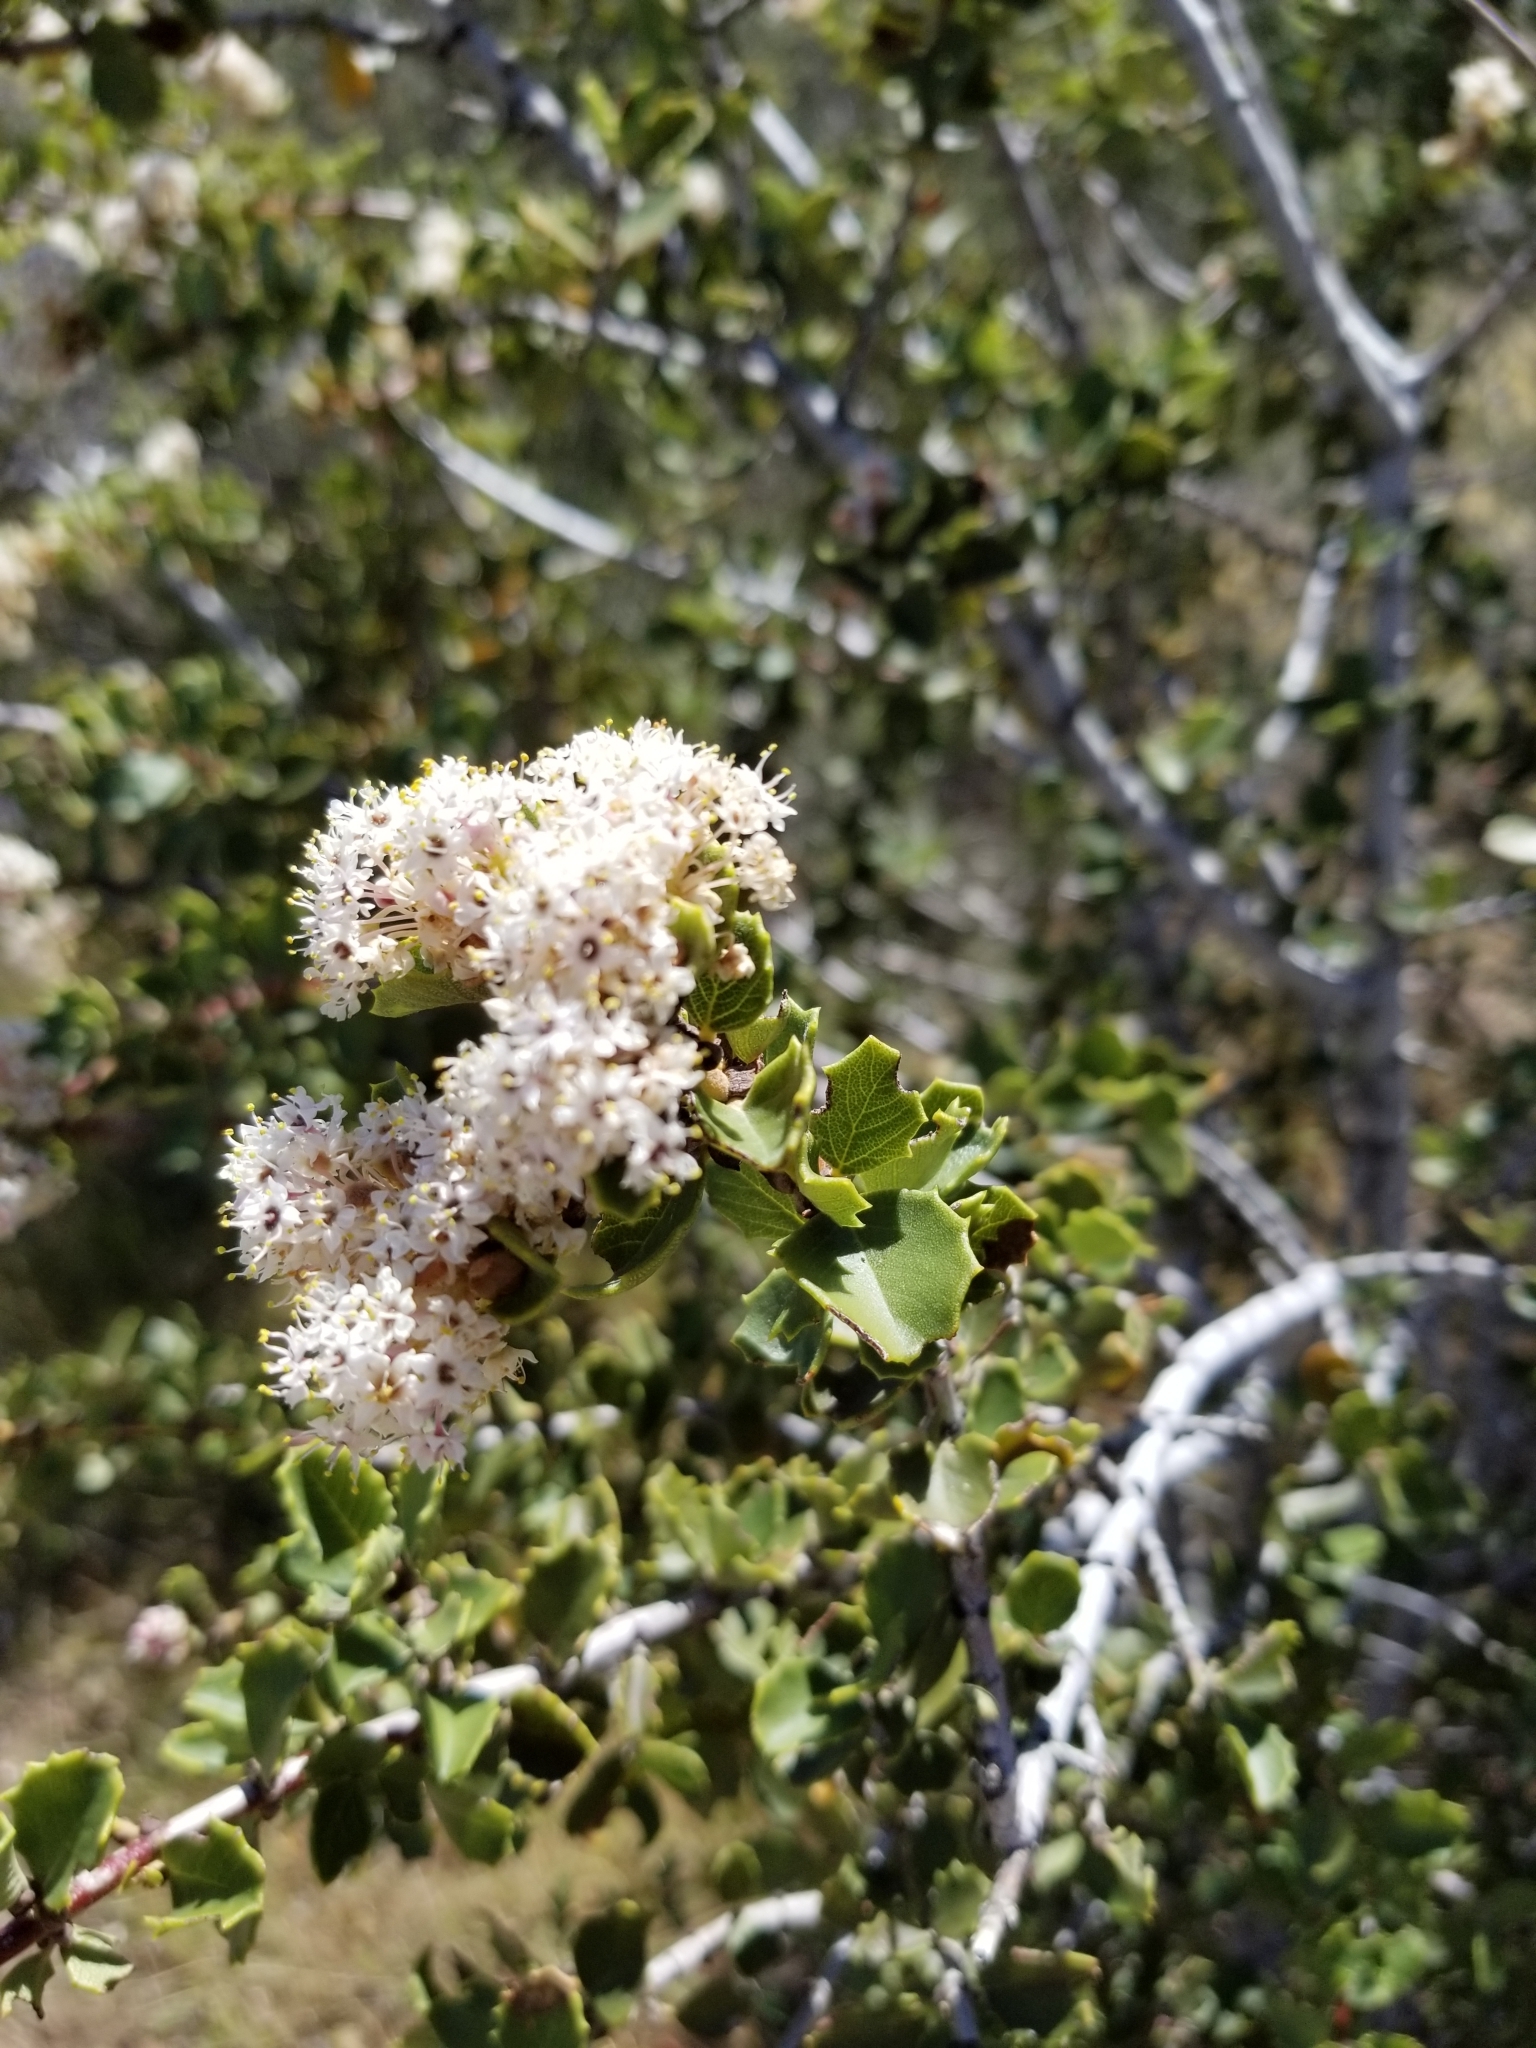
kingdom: Plantae
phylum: Tracheophyta
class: Magnoliopsida
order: Rosales
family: Rhamnaceae
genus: Ceanothus
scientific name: Ceanothus perplexans
